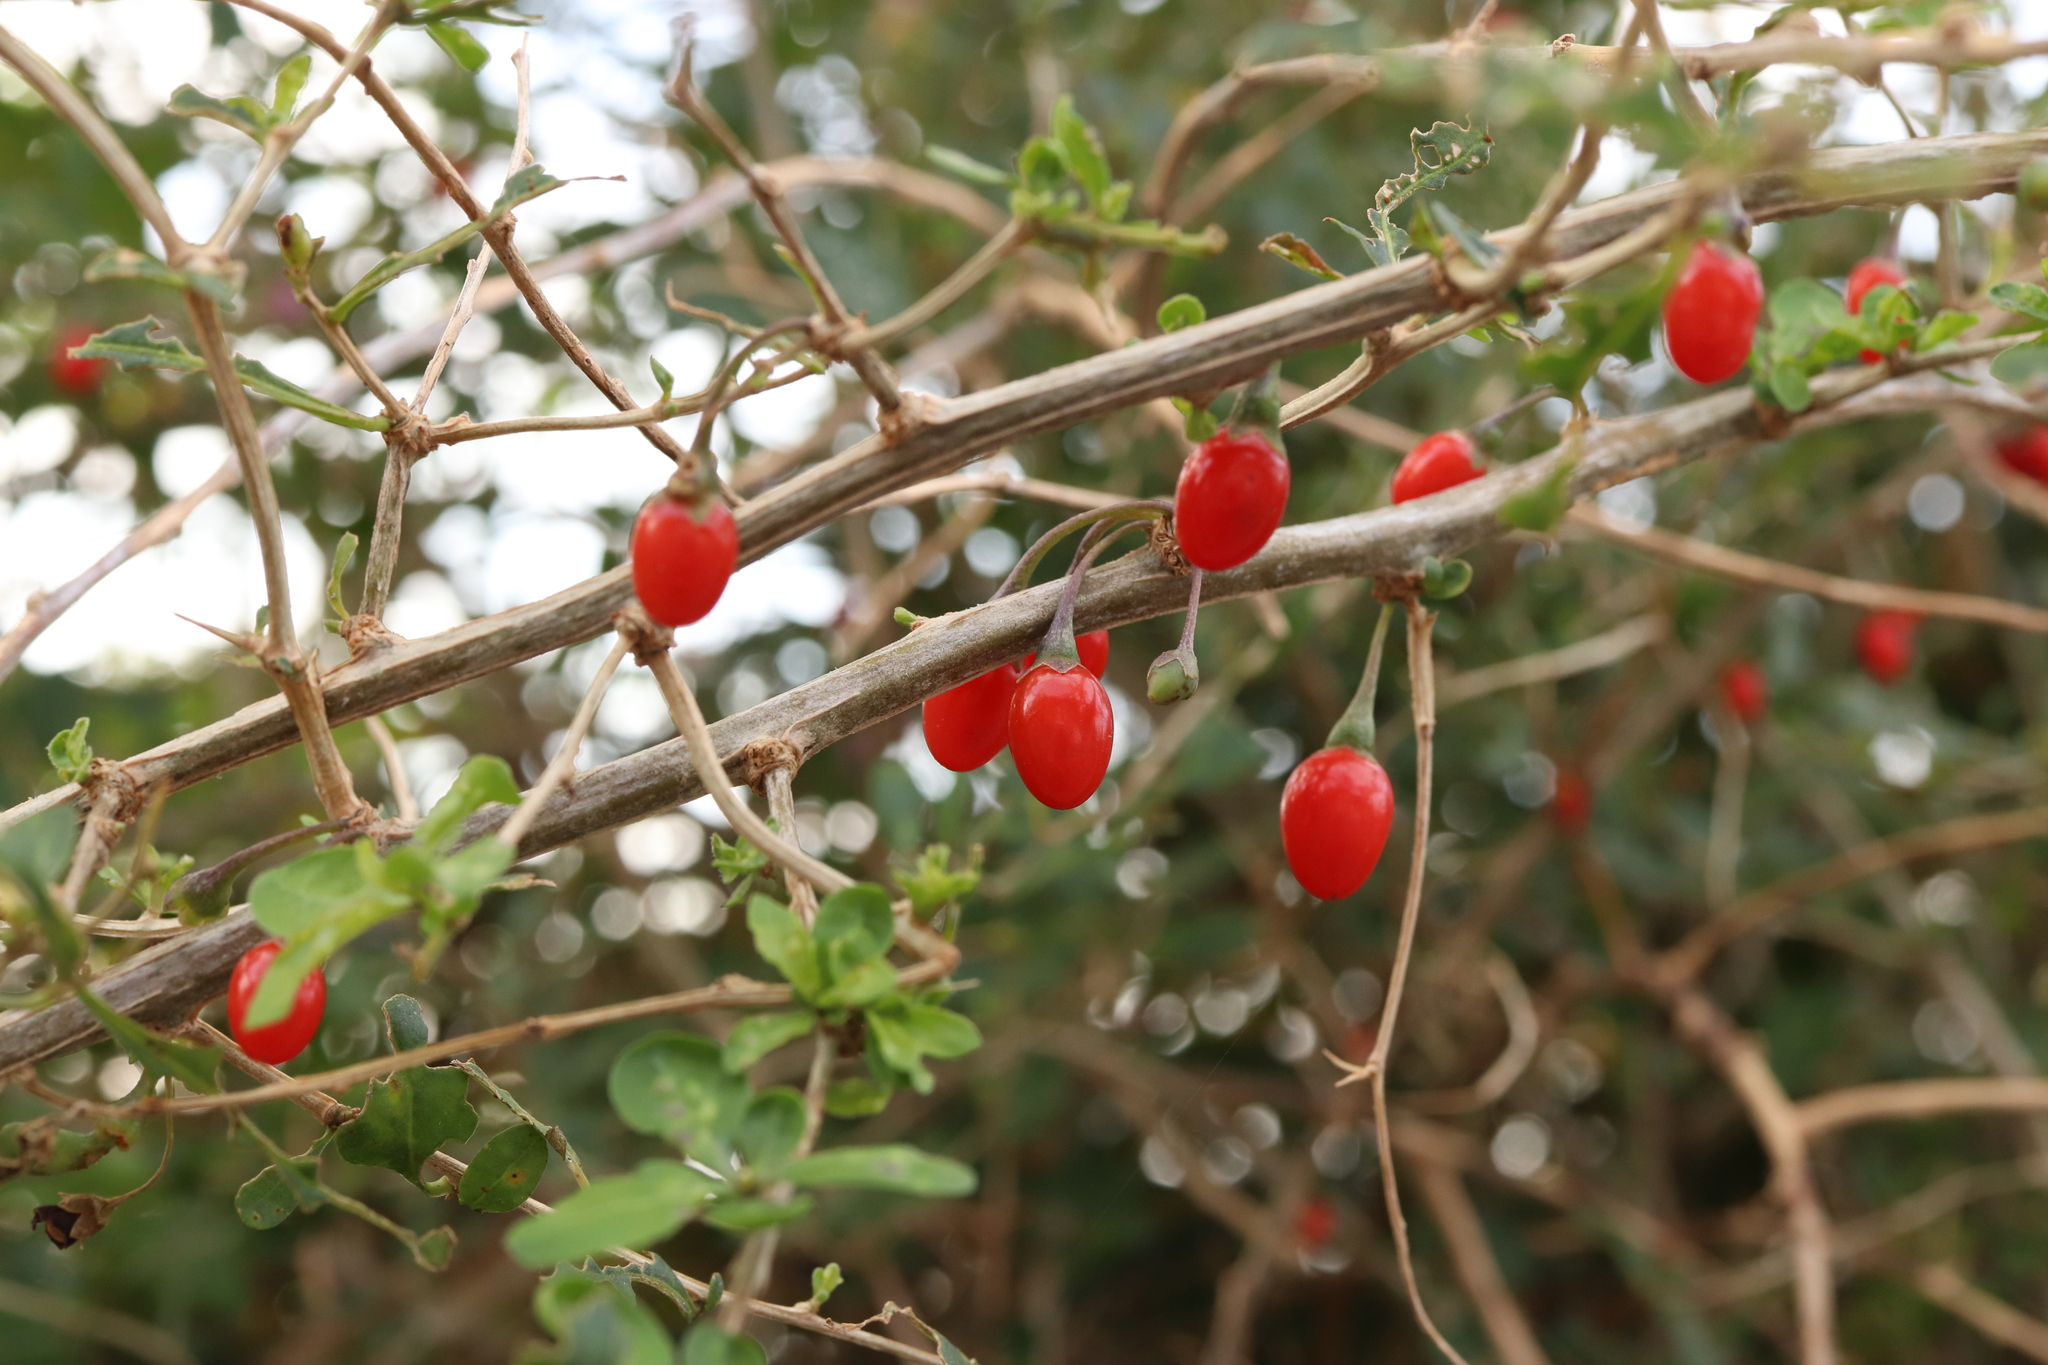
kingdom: Plantae
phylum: Tracheophyta
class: Magnoliopsida
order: Solanales
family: Solanaceae
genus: Lycium
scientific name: Lycium chinense
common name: Chinese teaplant
